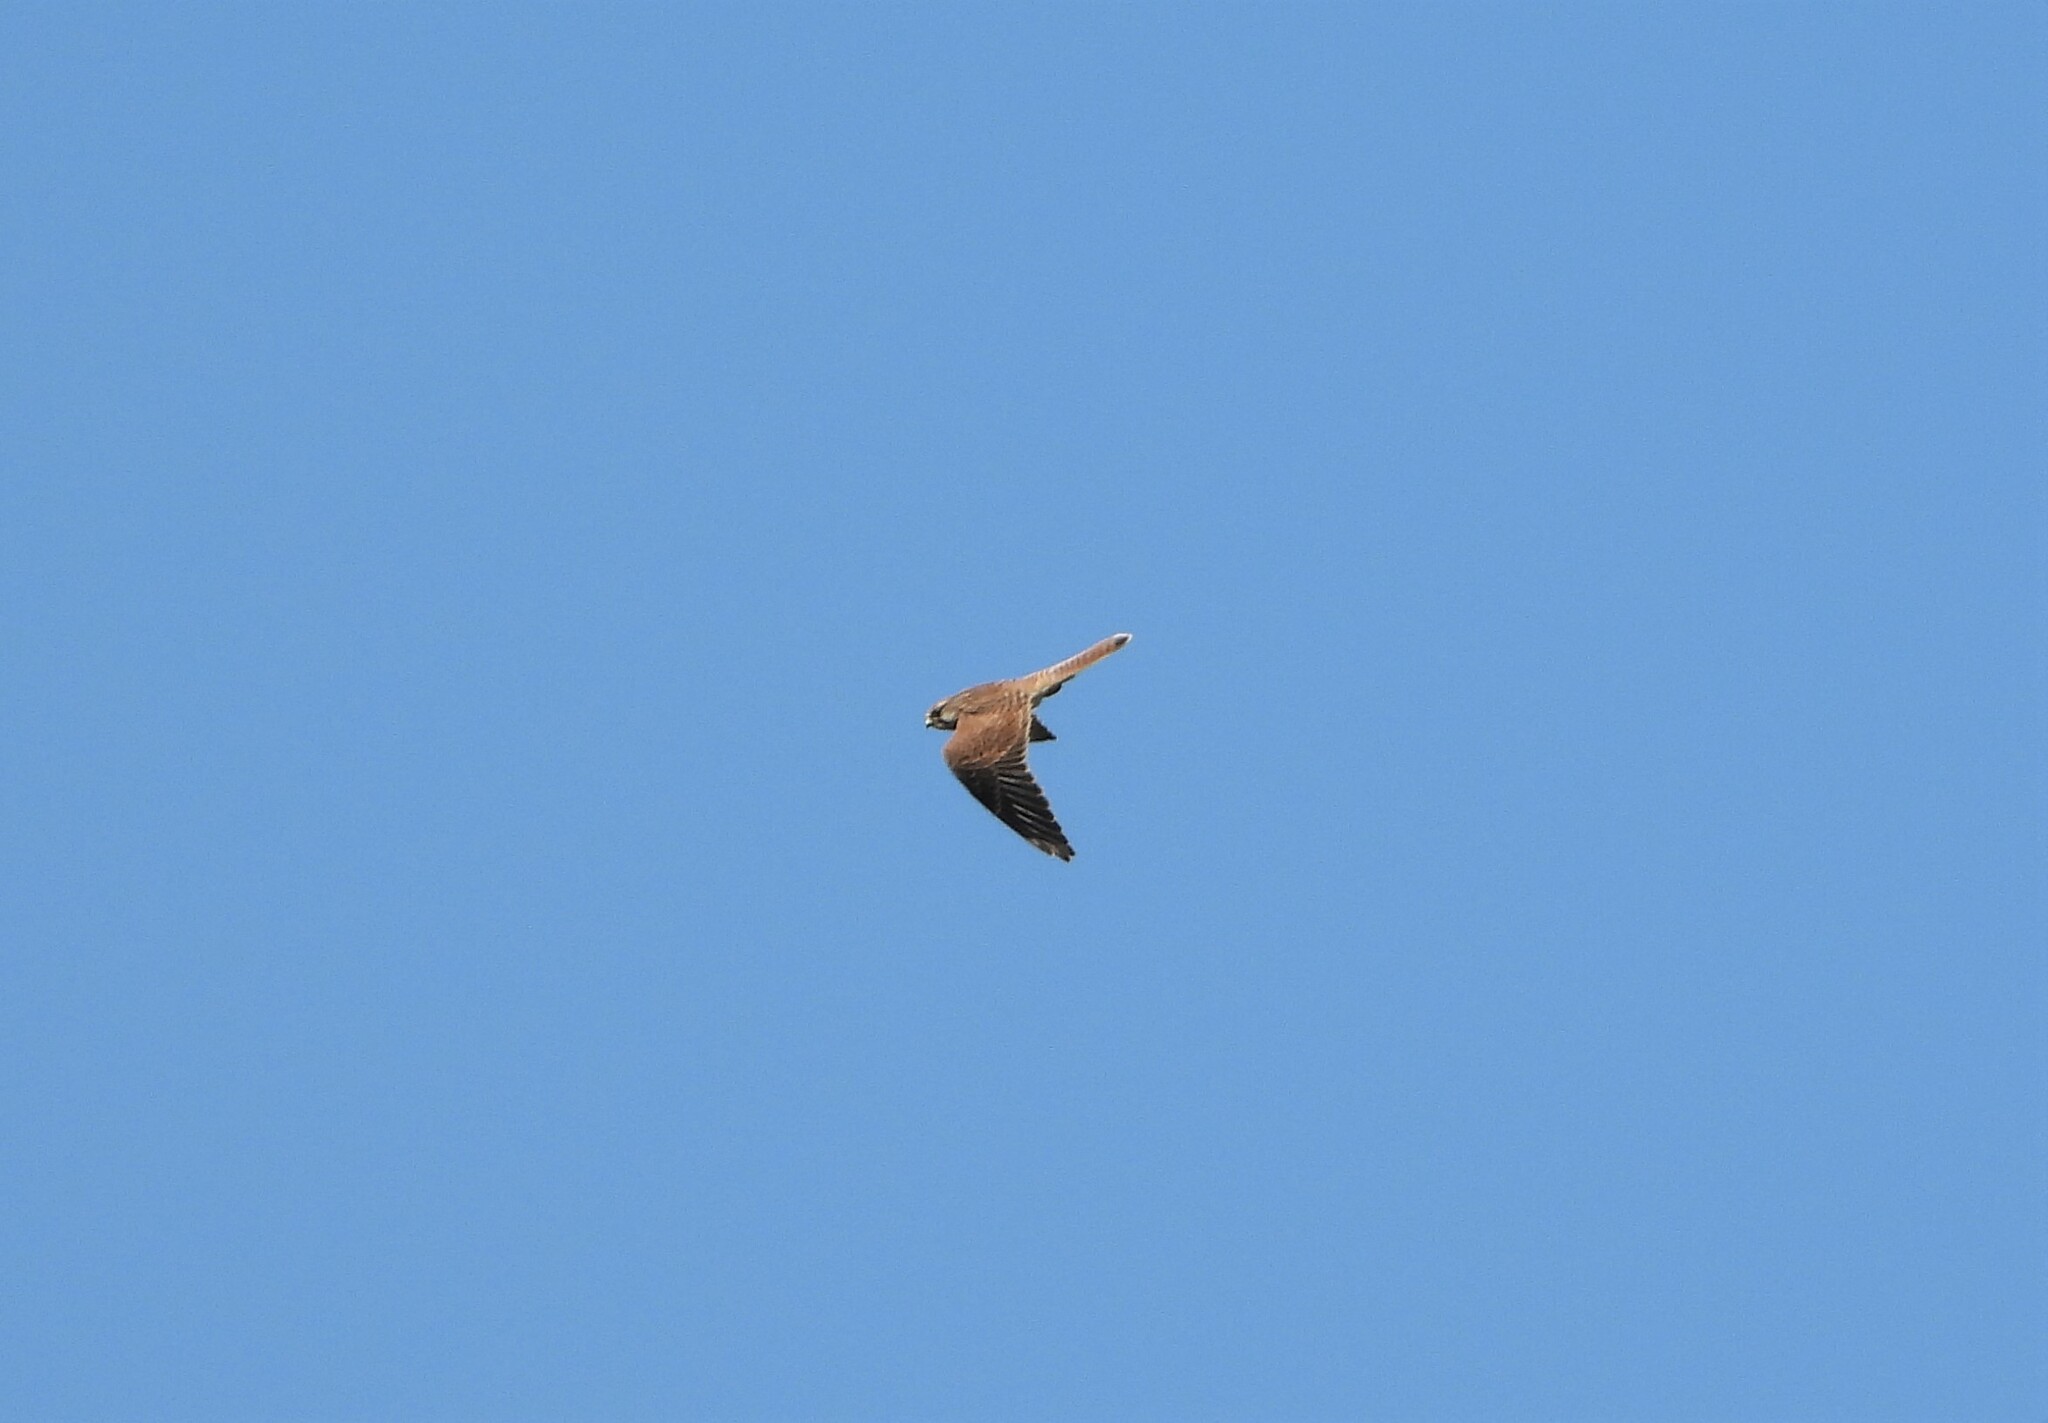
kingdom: Animalia
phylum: Chordata
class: Aves
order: Falconiformes
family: Falconidae
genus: Falco
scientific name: Falco tinnunculus
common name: Common kestrel
